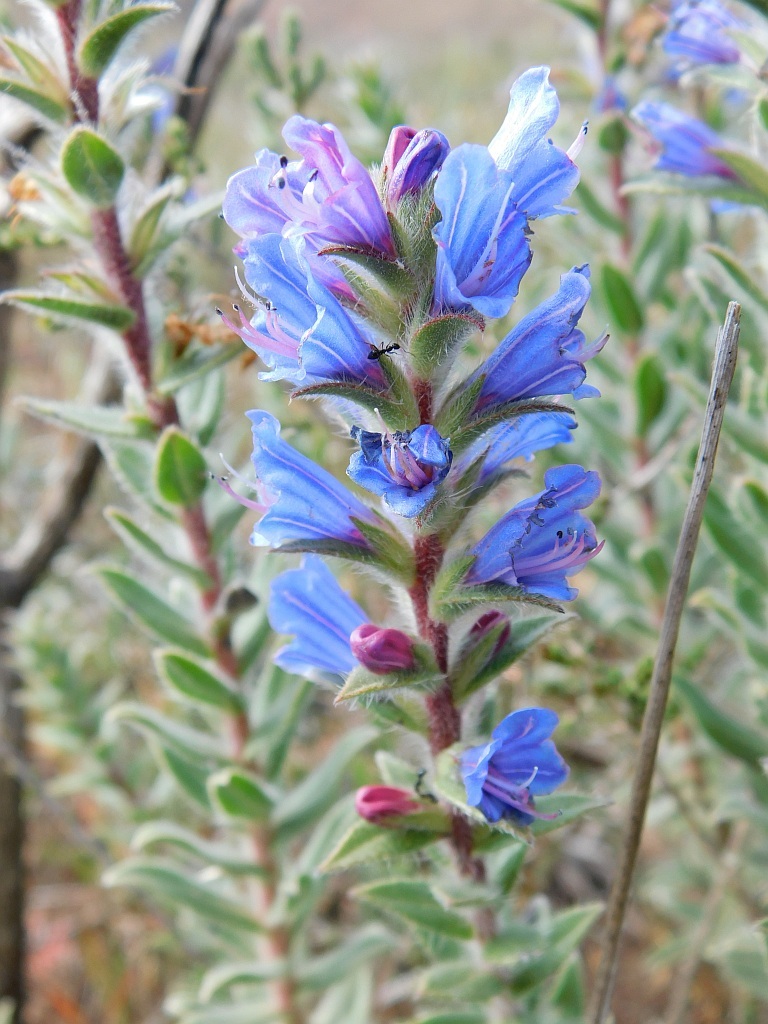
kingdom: Plantae
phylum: Tracheophyta
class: Magnoliopsida
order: Boraginales
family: Boraginaceae
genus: Lobostemon
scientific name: Lobostemon argenteus
